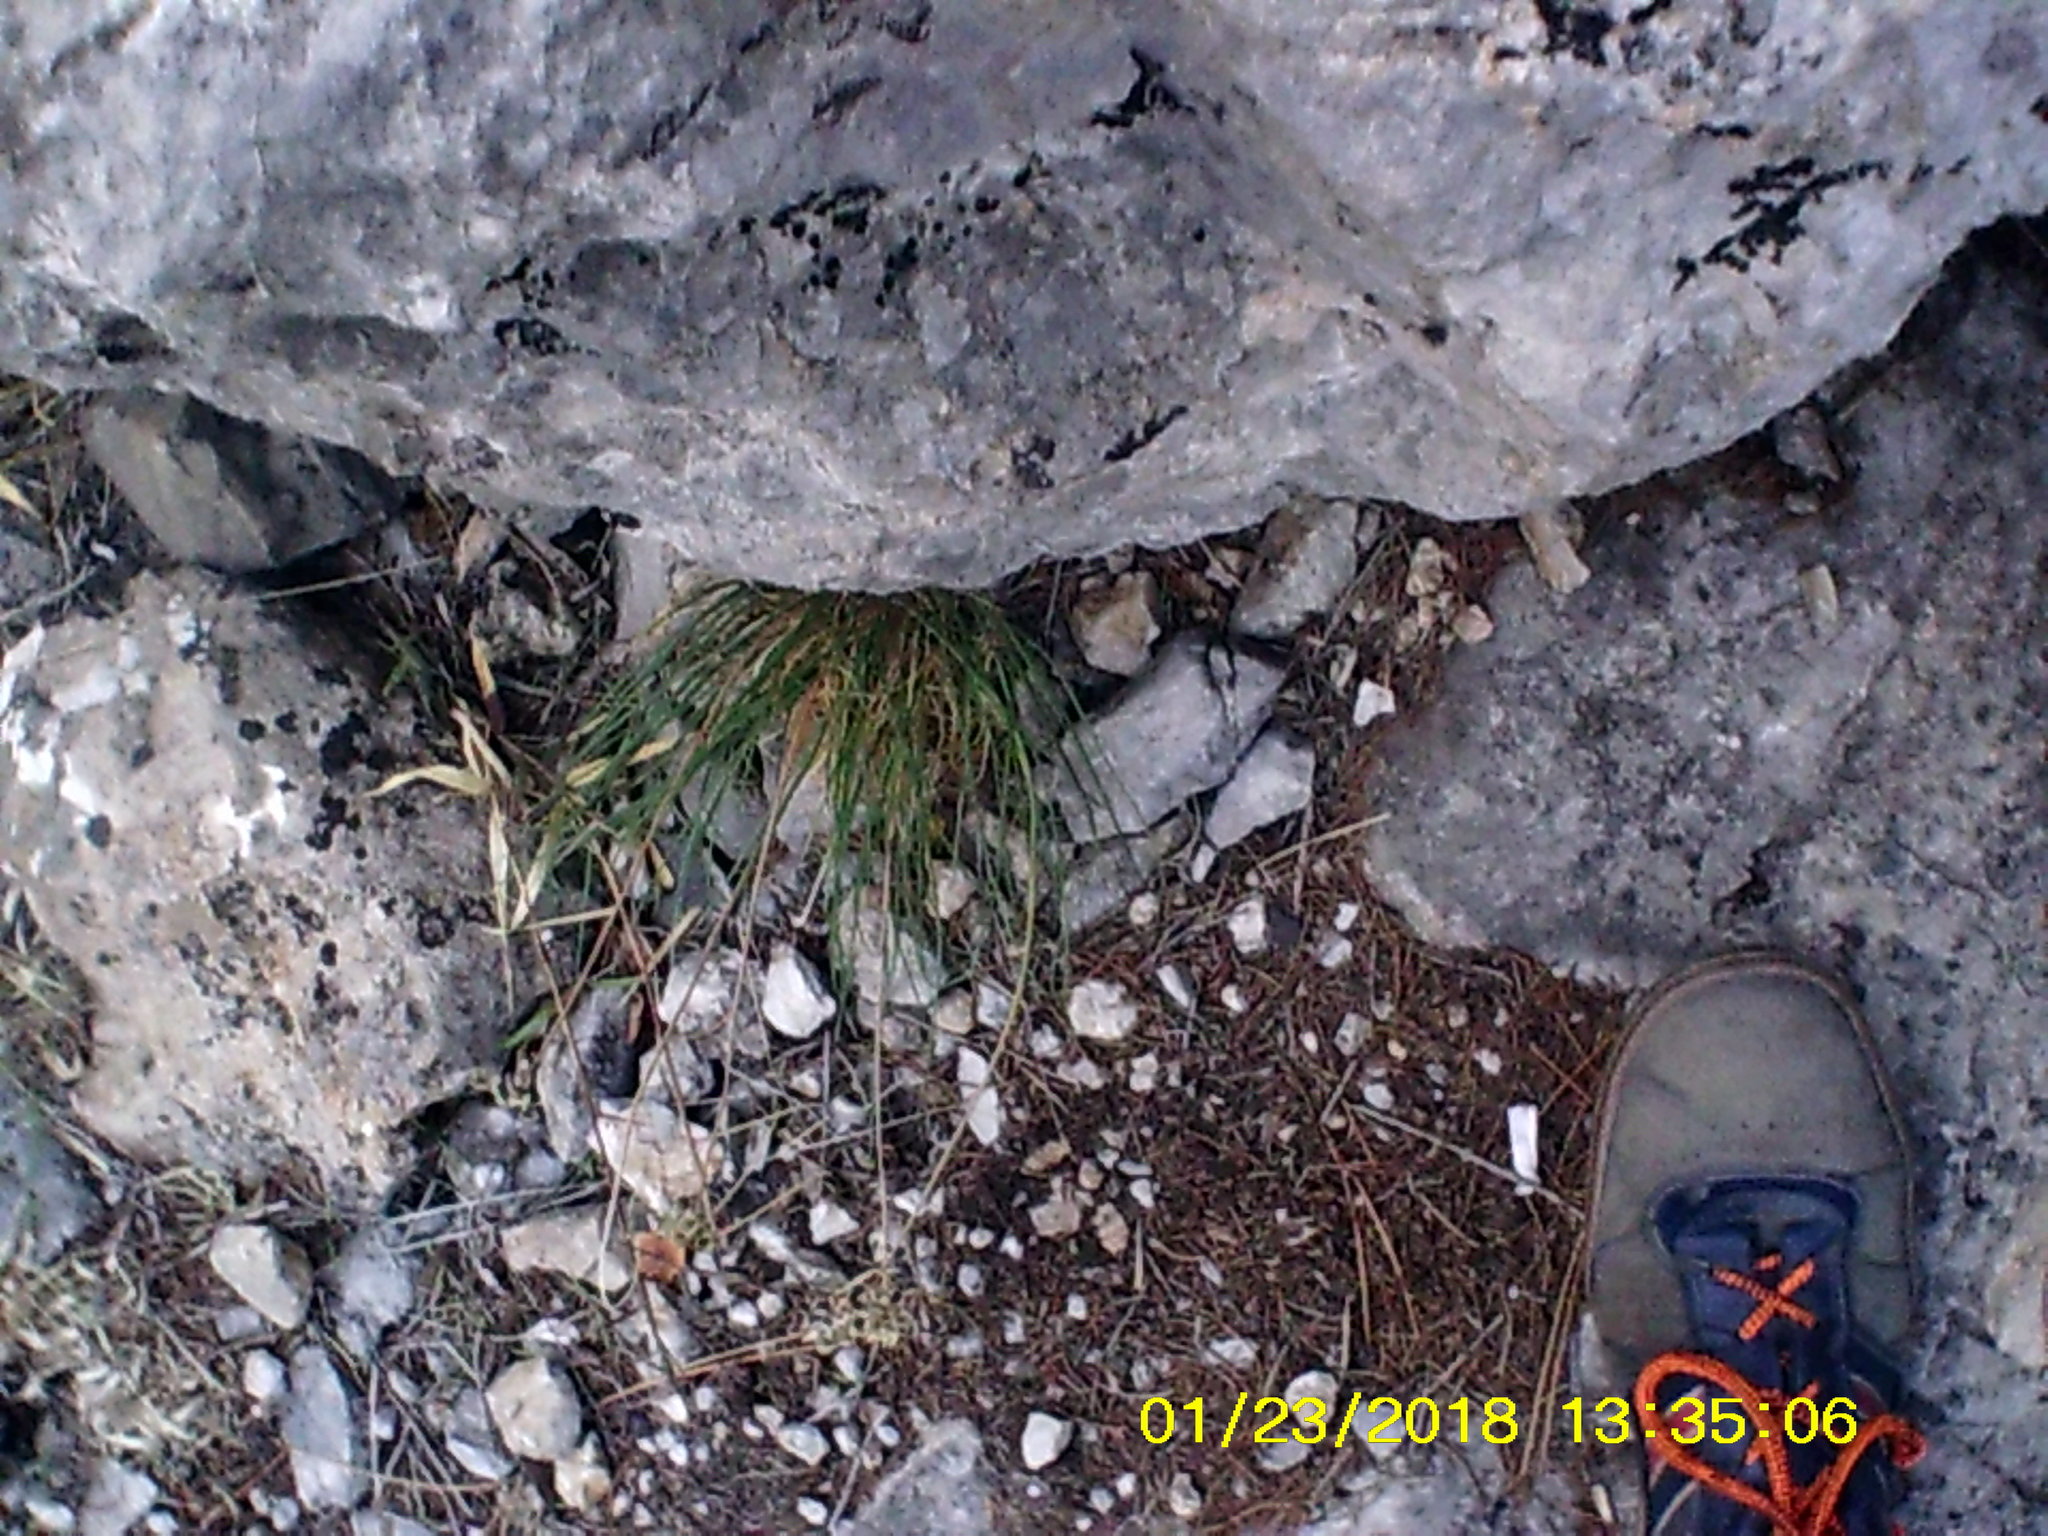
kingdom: Plantae
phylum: Tracheophyta
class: Liliopsida
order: Asparagales
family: Amaryllidaceae
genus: Allium
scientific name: Allium marschallianum
